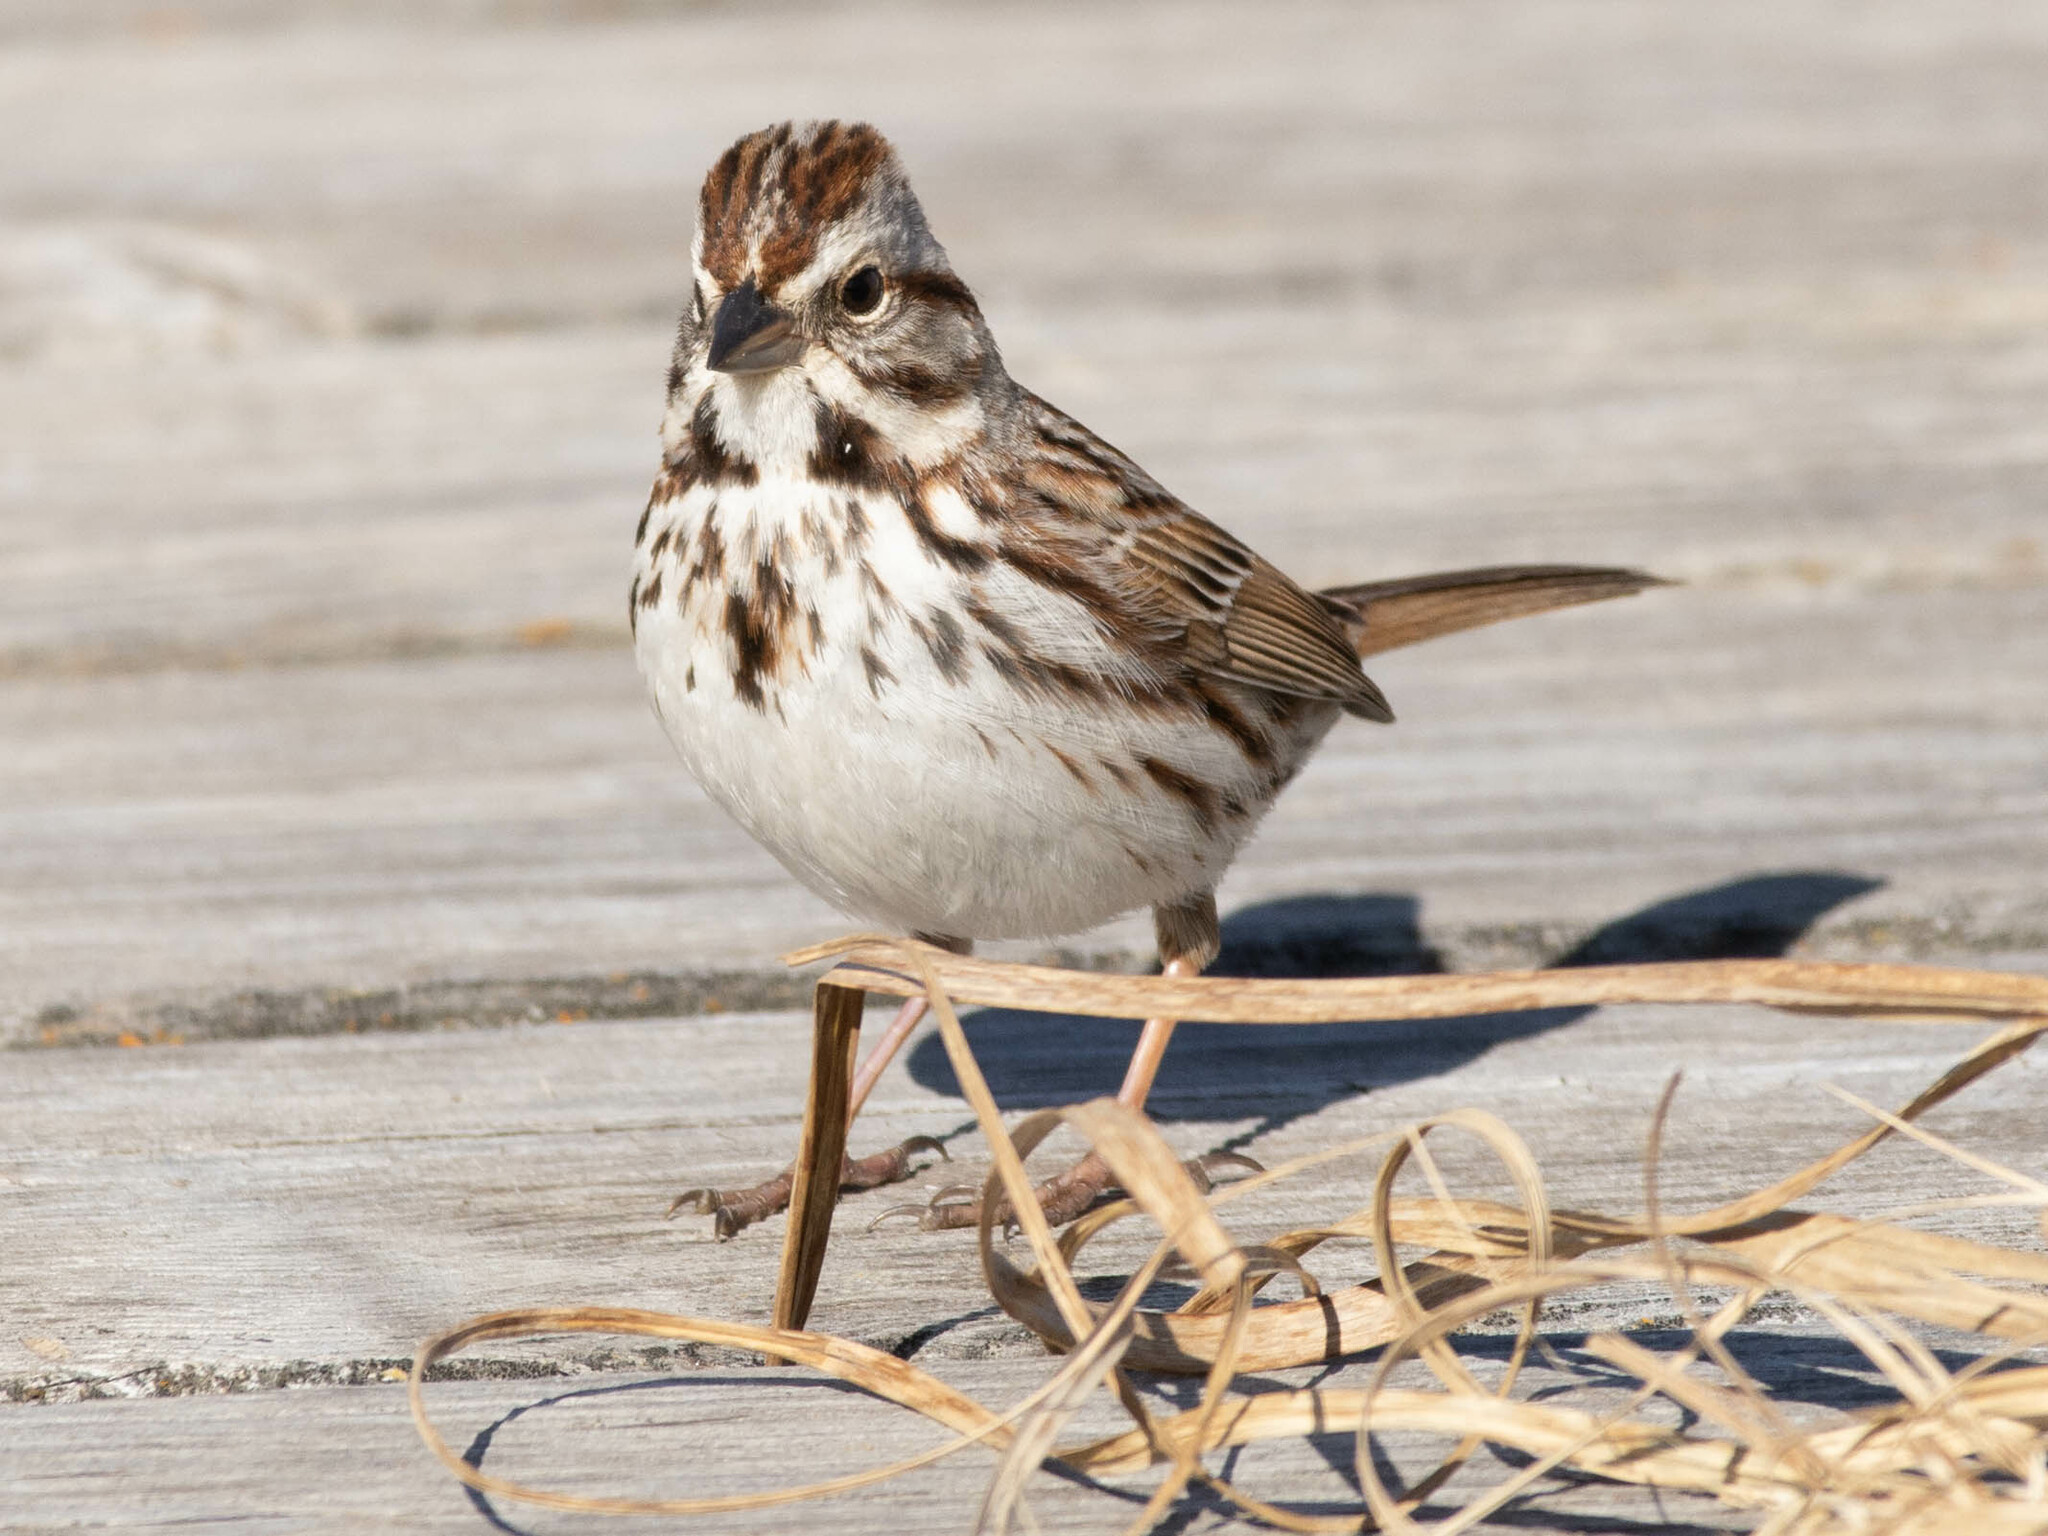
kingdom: Animalia
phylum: Chordata
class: Aves
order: Passeriformes
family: Passerellidae
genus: Melospiza
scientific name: Melospiza melodia
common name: Song sparrow
